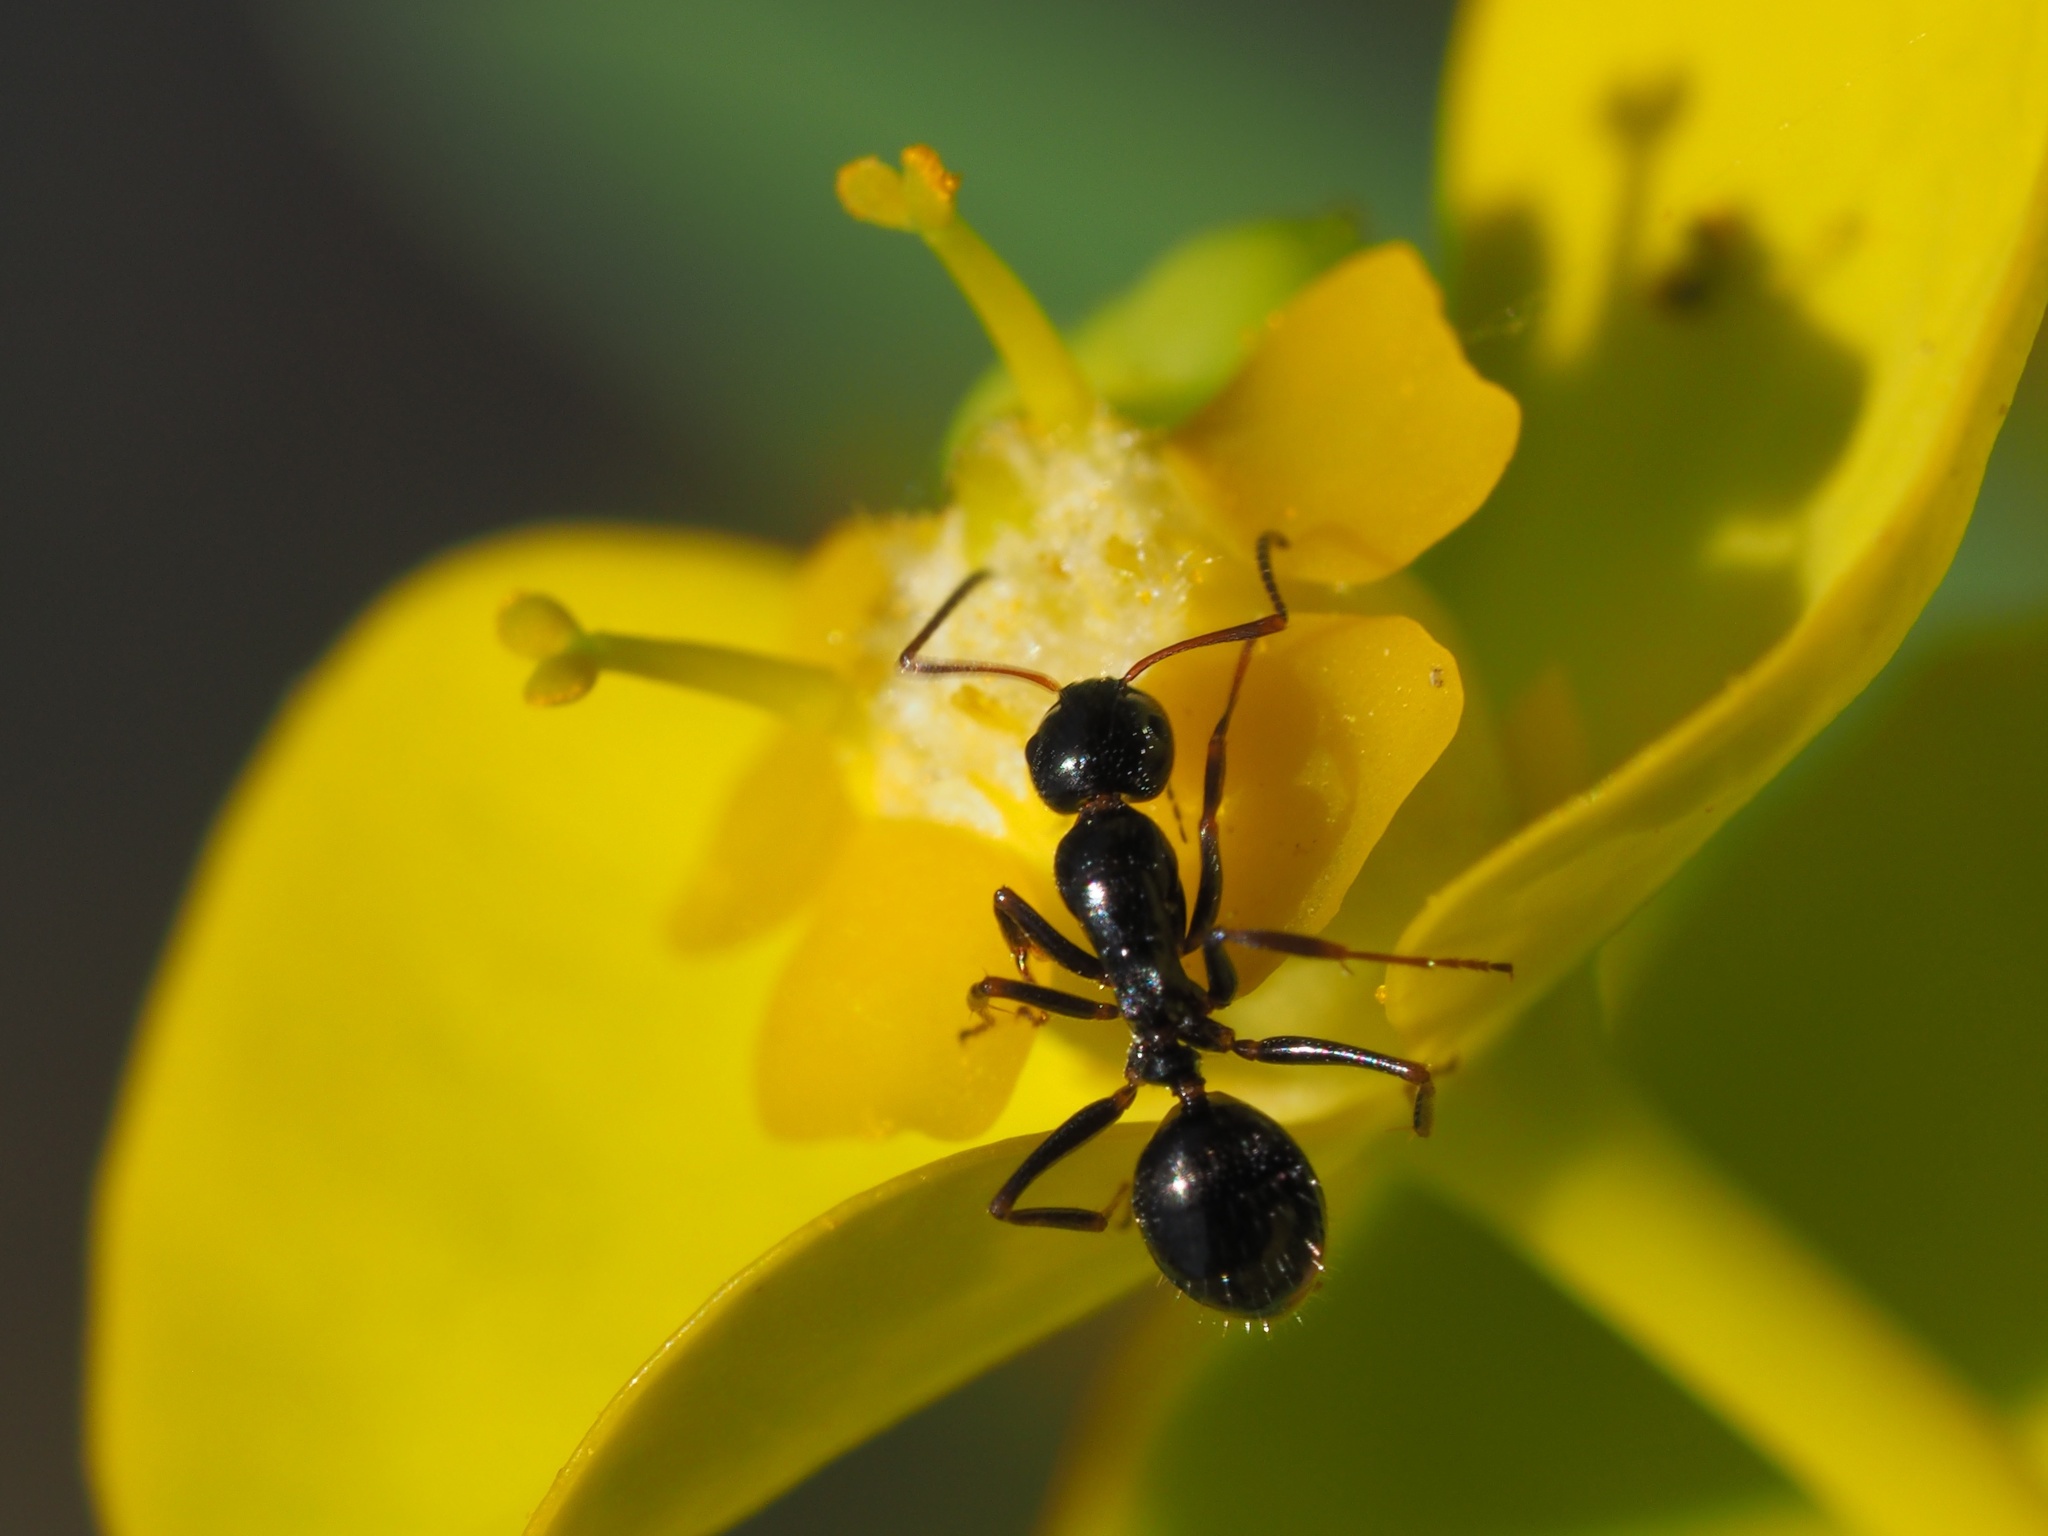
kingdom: Animalia
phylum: Arthropoda
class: Insecta
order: Hymenoptera
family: Formicidae
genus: Camponotus
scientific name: Camponotus piceus
